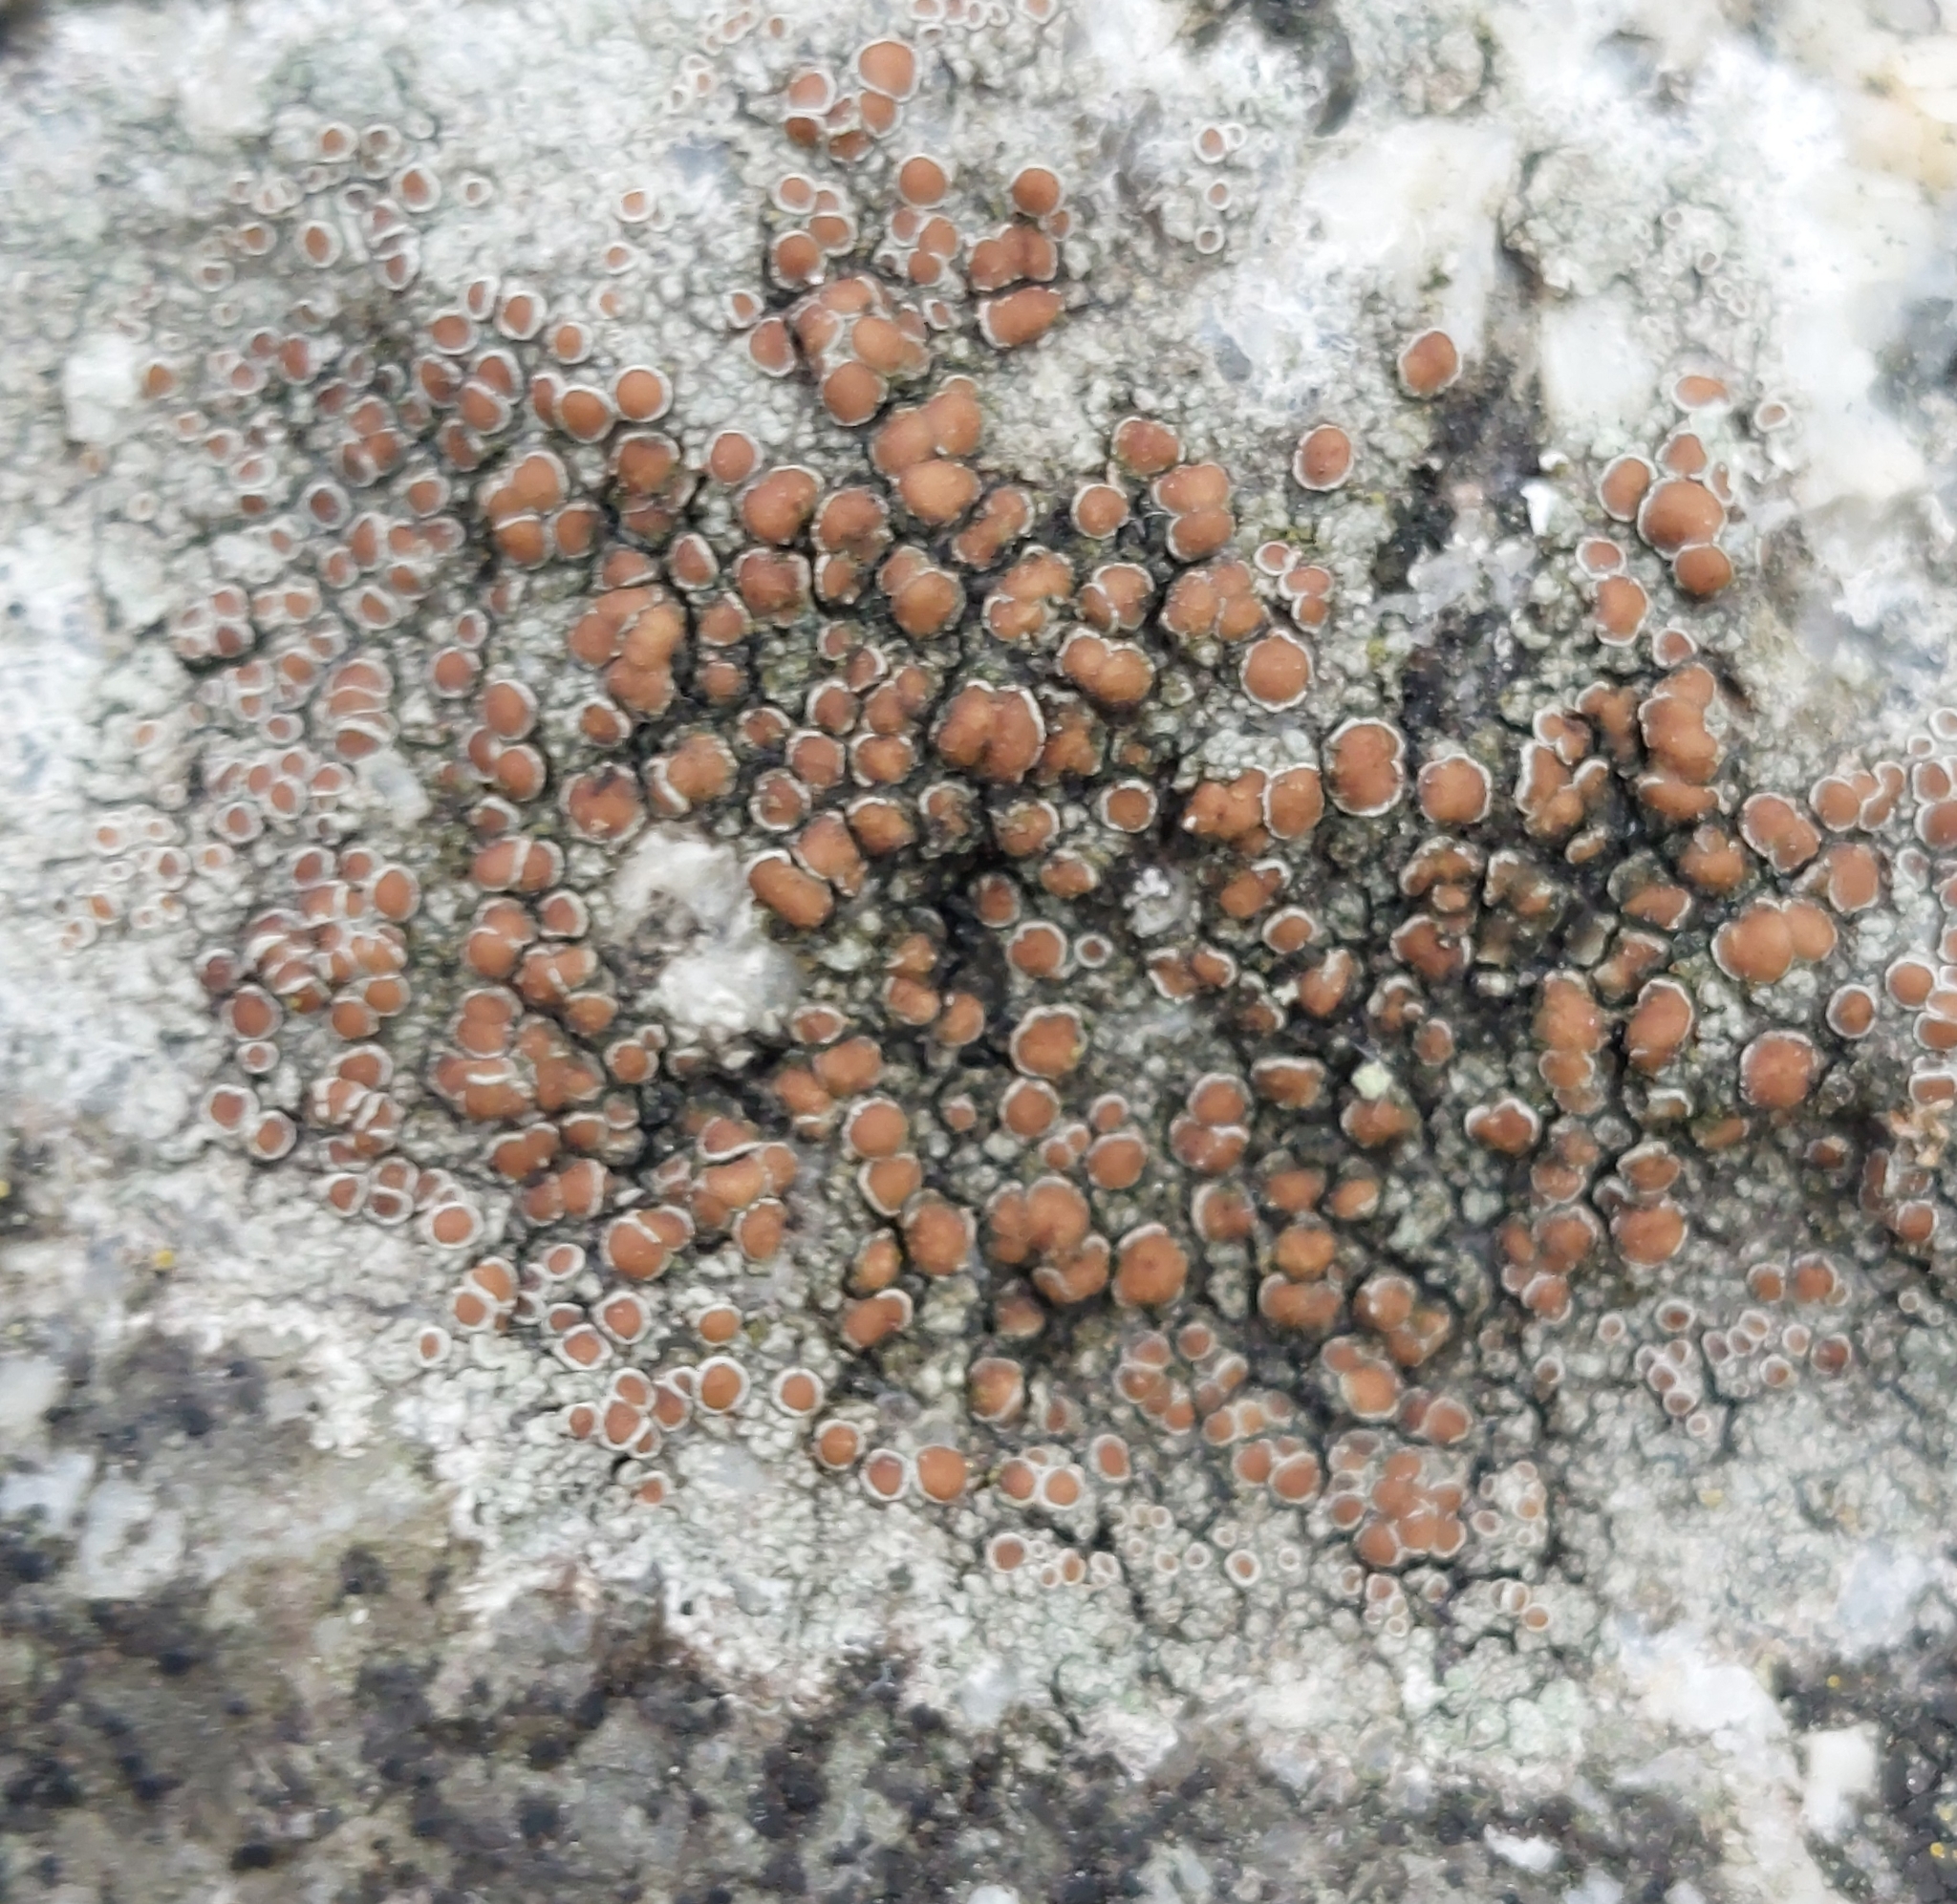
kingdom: Fungi
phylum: Ascomycota
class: Lecanoromycetes
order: Lecanorales
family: Lecanoraceae
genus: Lecanora
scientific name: Lecanora campestris
